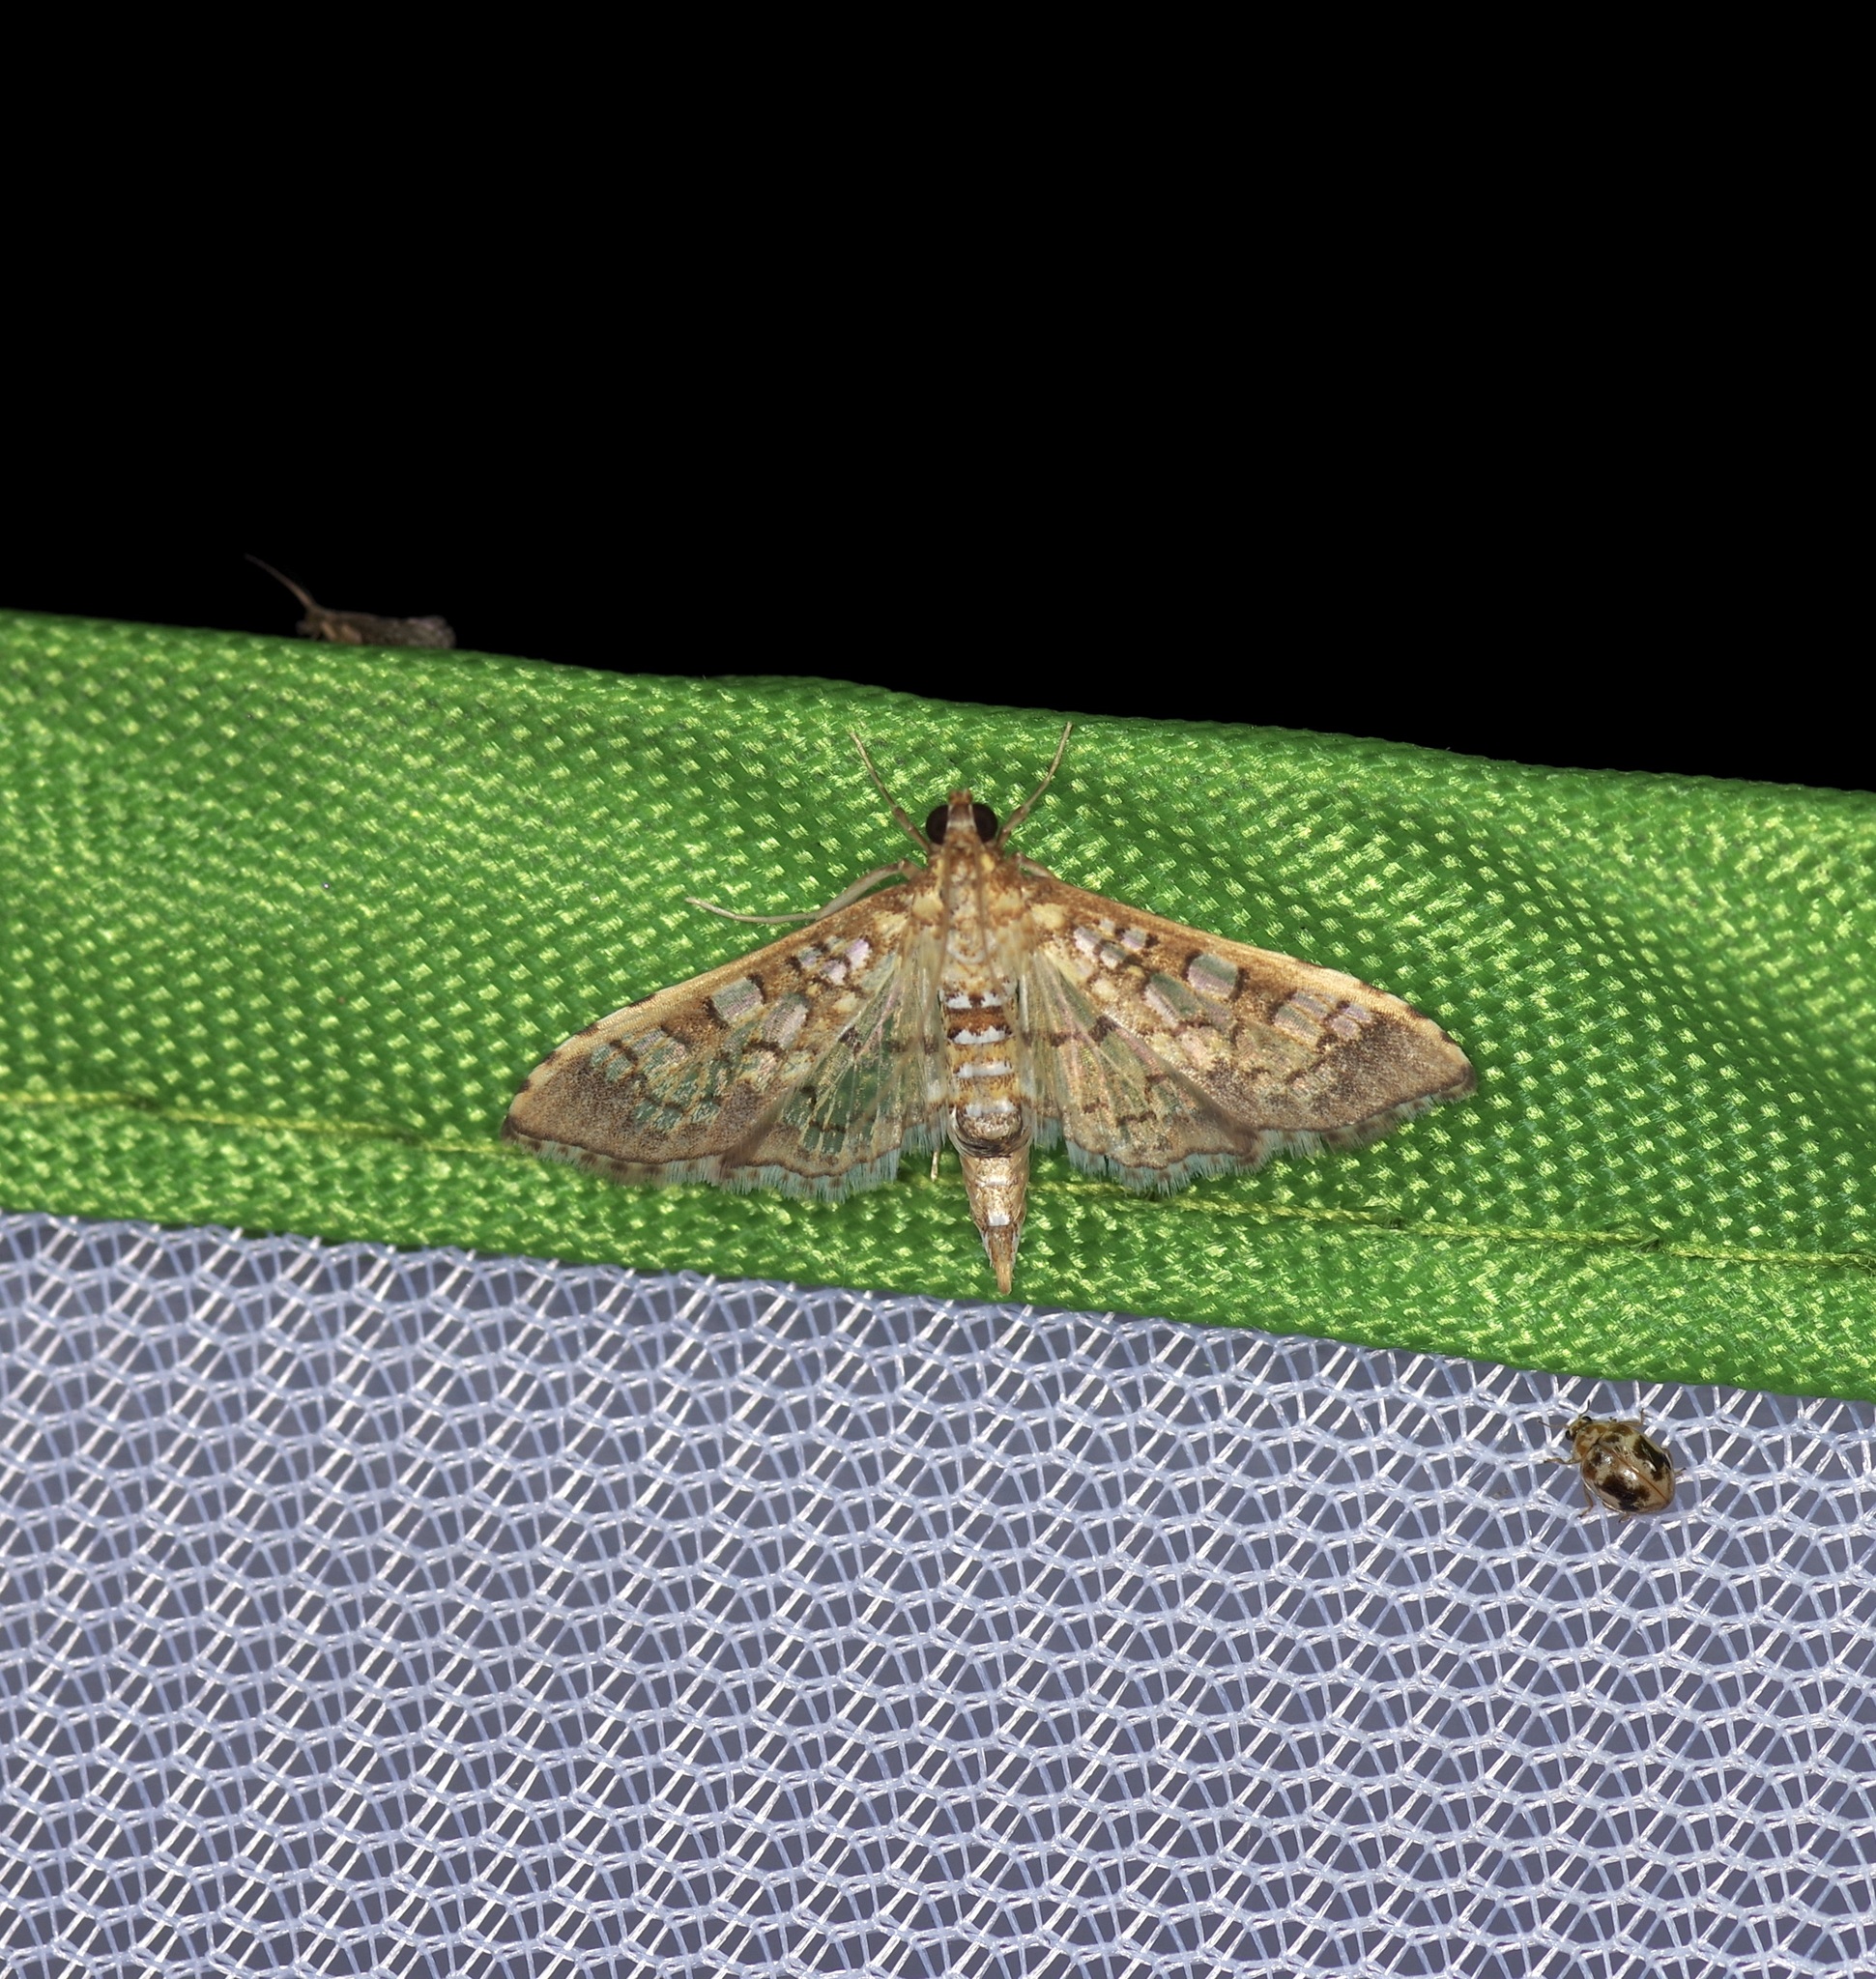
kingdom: Animalia
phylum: Arthropoda
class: Insecta
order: Lepidoptera
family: Crambidae
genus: Samea
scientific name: Samea ecclesialis
